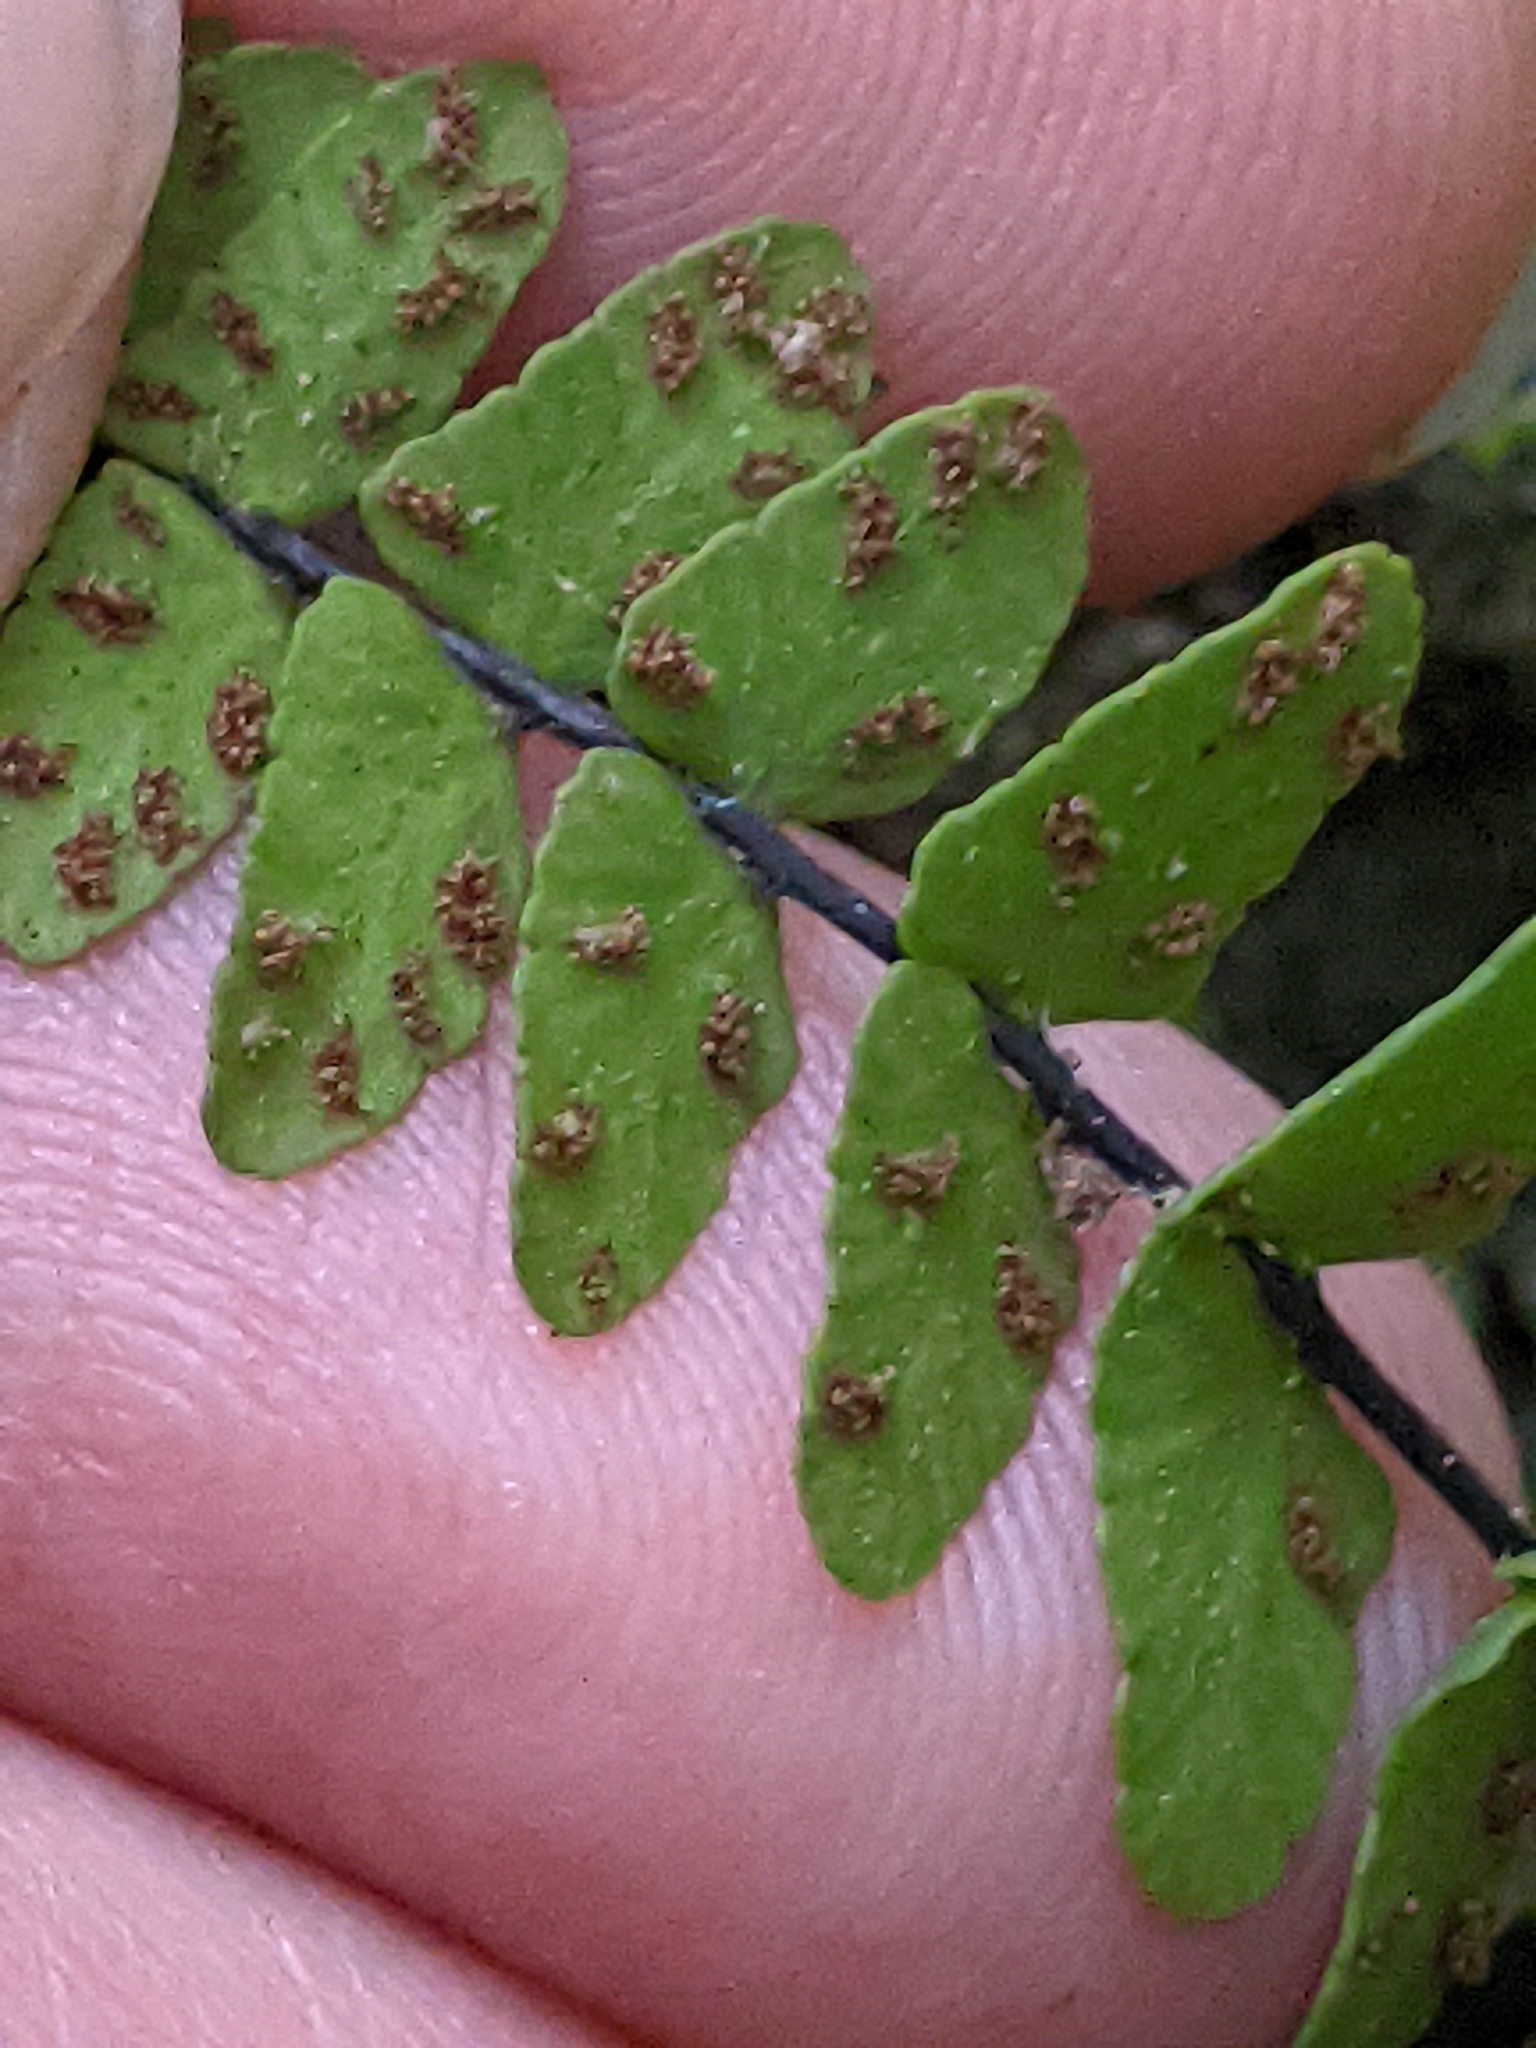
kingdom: Plantae
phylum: Tracheophyta
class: Polypodiopsida
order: Polypodiales
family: Aspleniaceae
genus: Asplenium
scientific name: Asplenium resiliens
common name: Blackstem spleenwort
